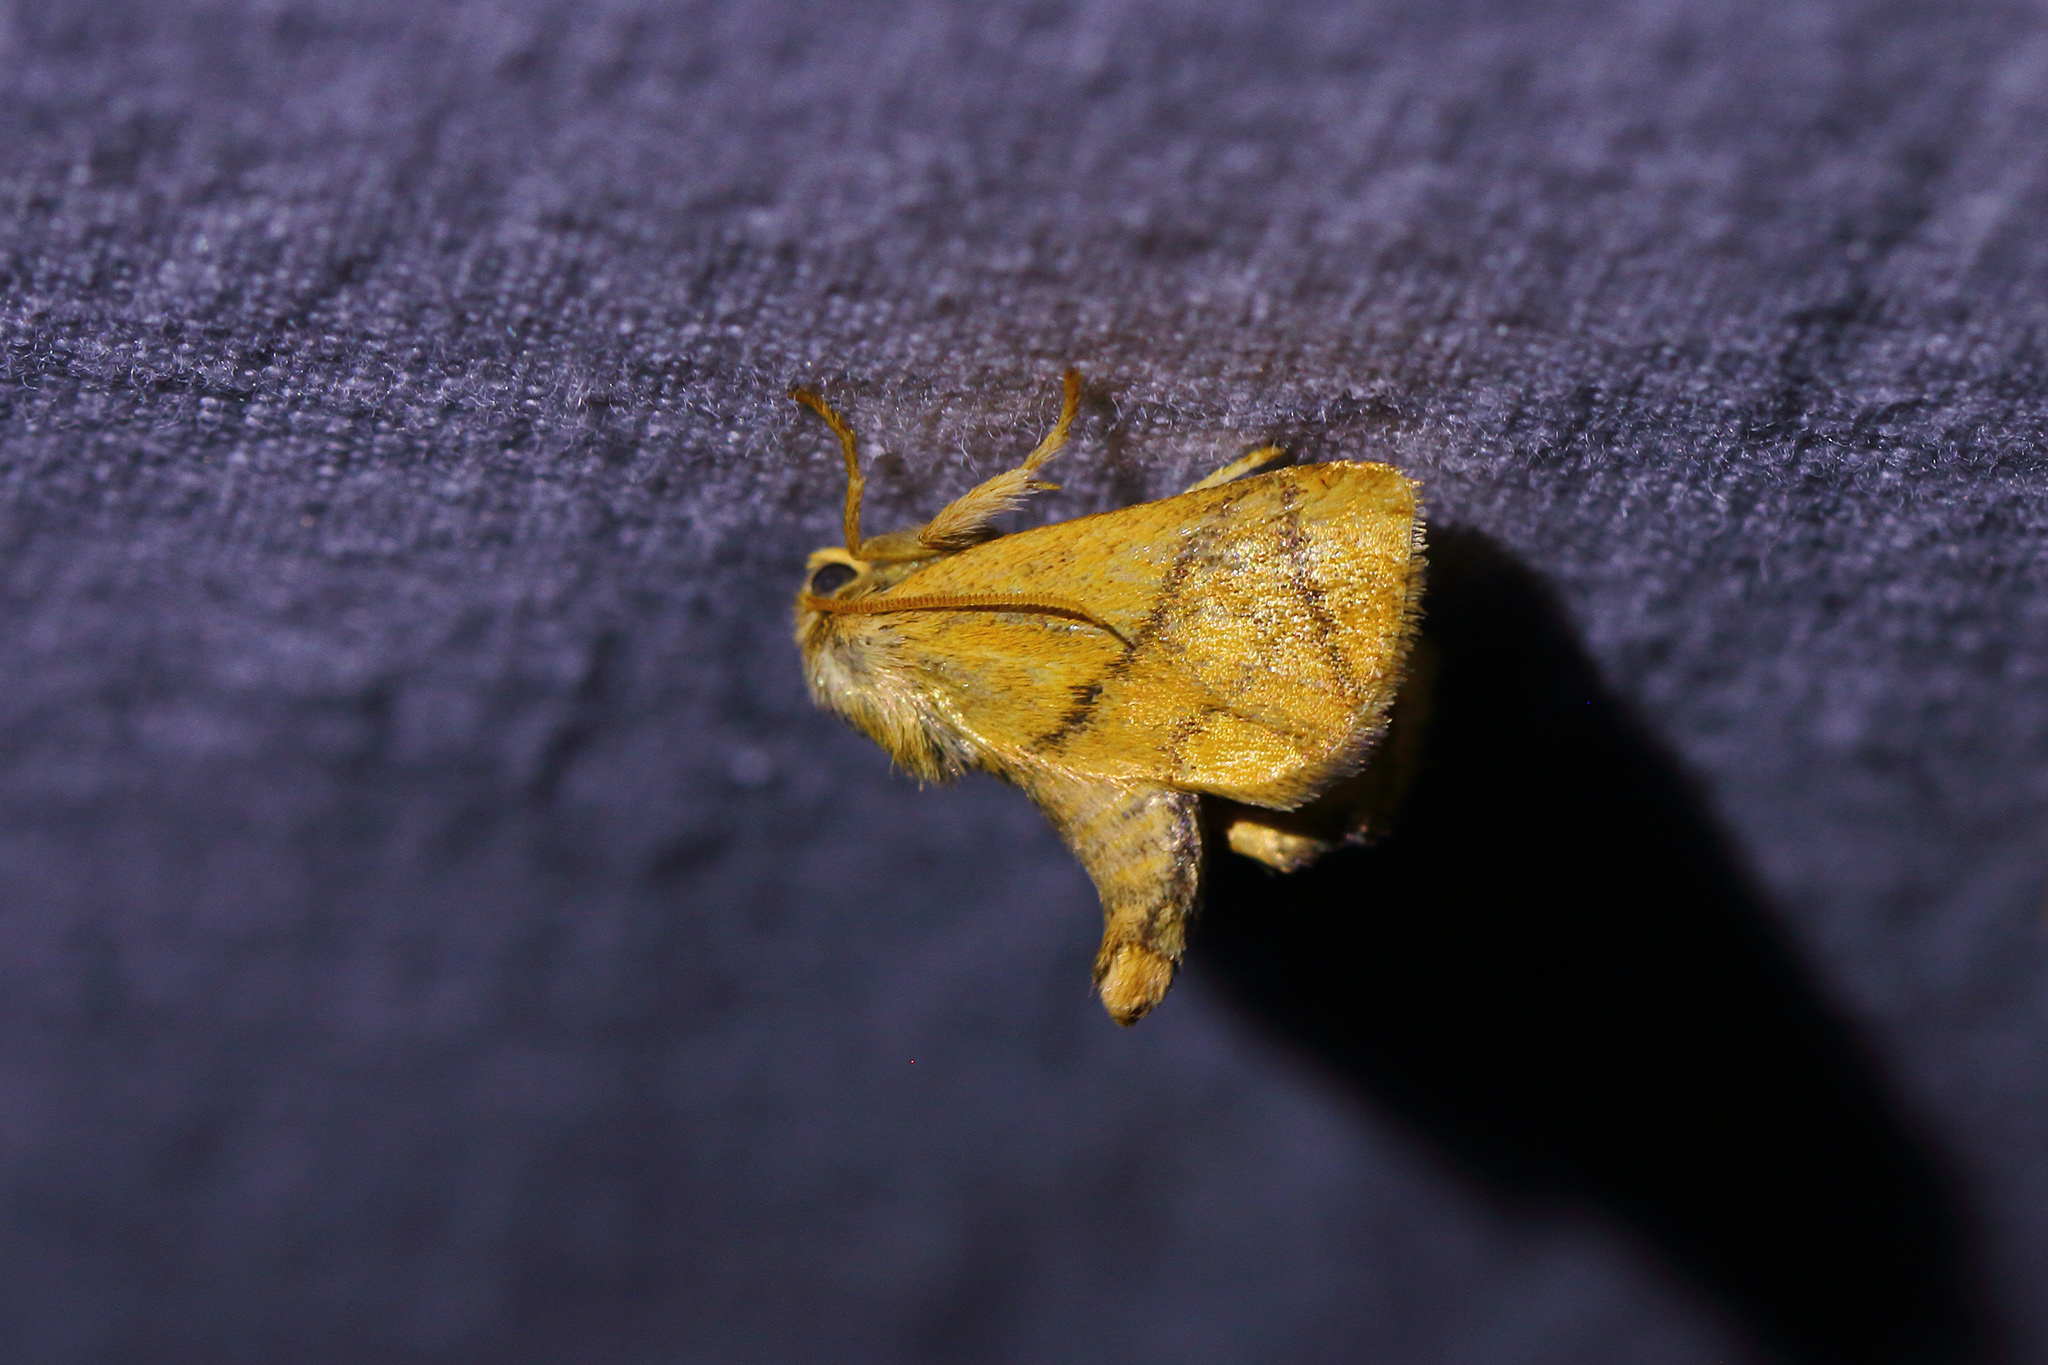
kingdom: Animalia
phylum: Arthropoda
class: Insecta
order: Lepidoptera
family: Limacodidae
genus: Apoda
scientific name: Apoda limacodes
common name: Festoon
